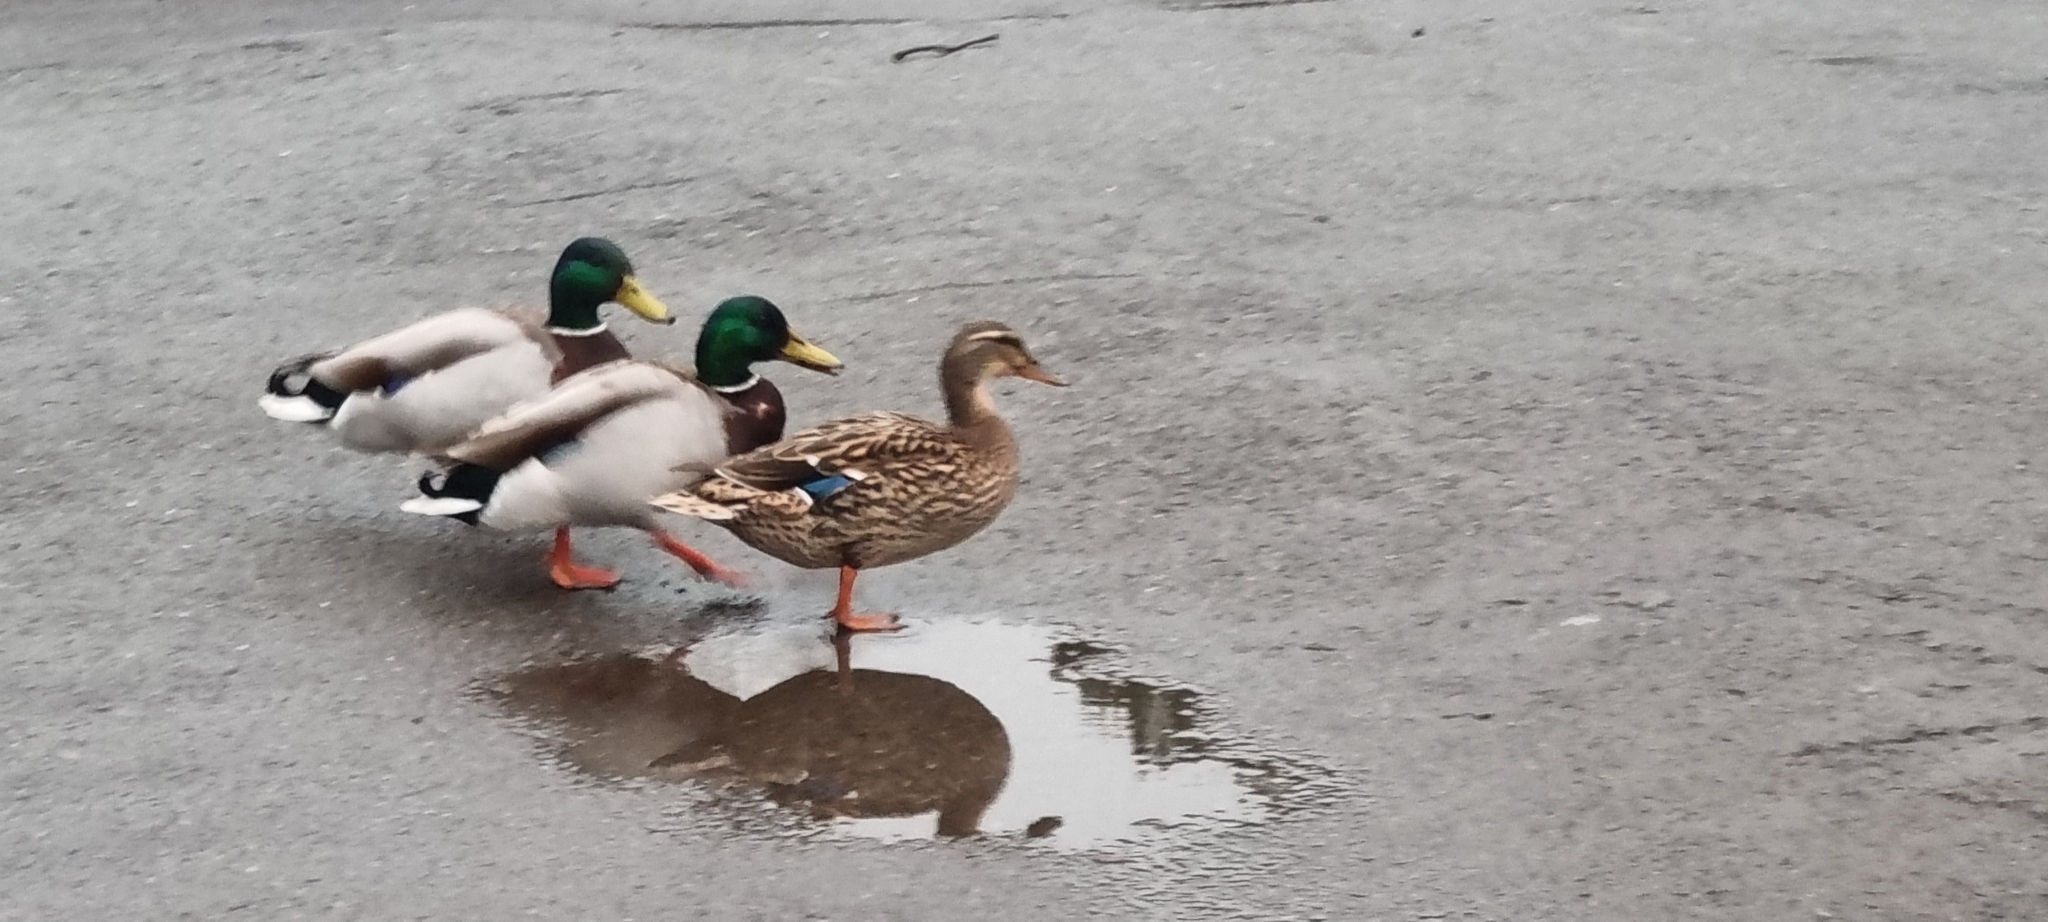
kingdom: Animalia
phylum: Chordata
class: Aves
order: Anseriformes
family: Anatidae
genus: Anas
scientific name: Anas platyrhynchos
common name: Mallard
